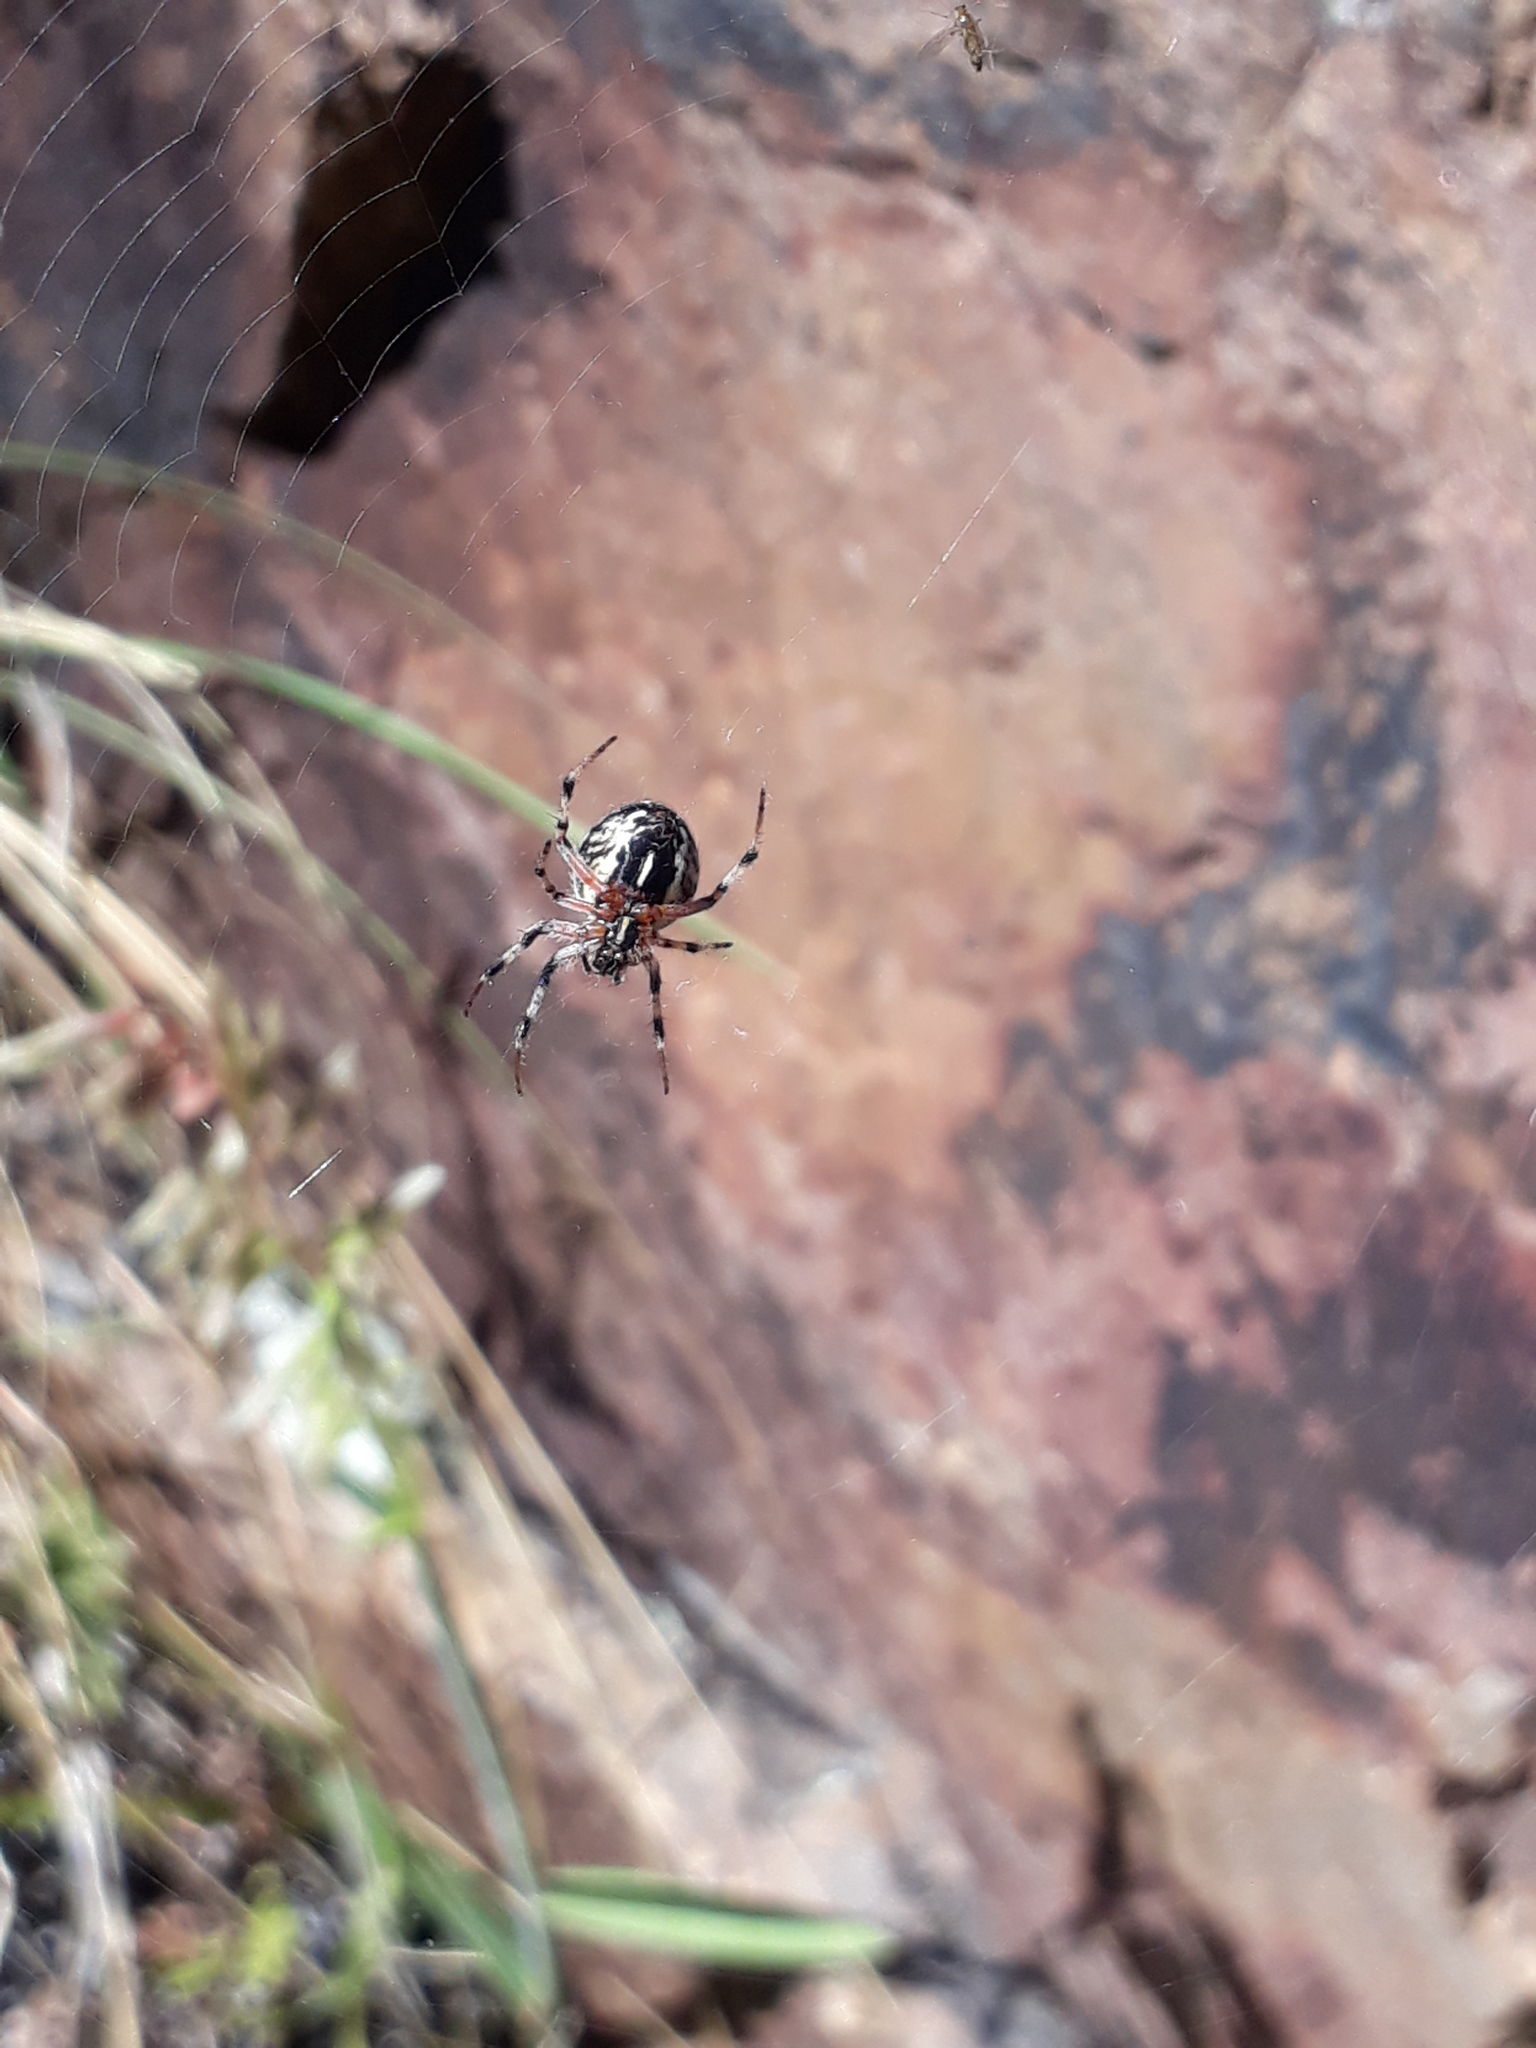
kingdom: Animalia
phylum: Arthropoda
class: Arachnida
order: Araneae
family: Araneidae
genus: Metepeira
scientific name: Metepeira
